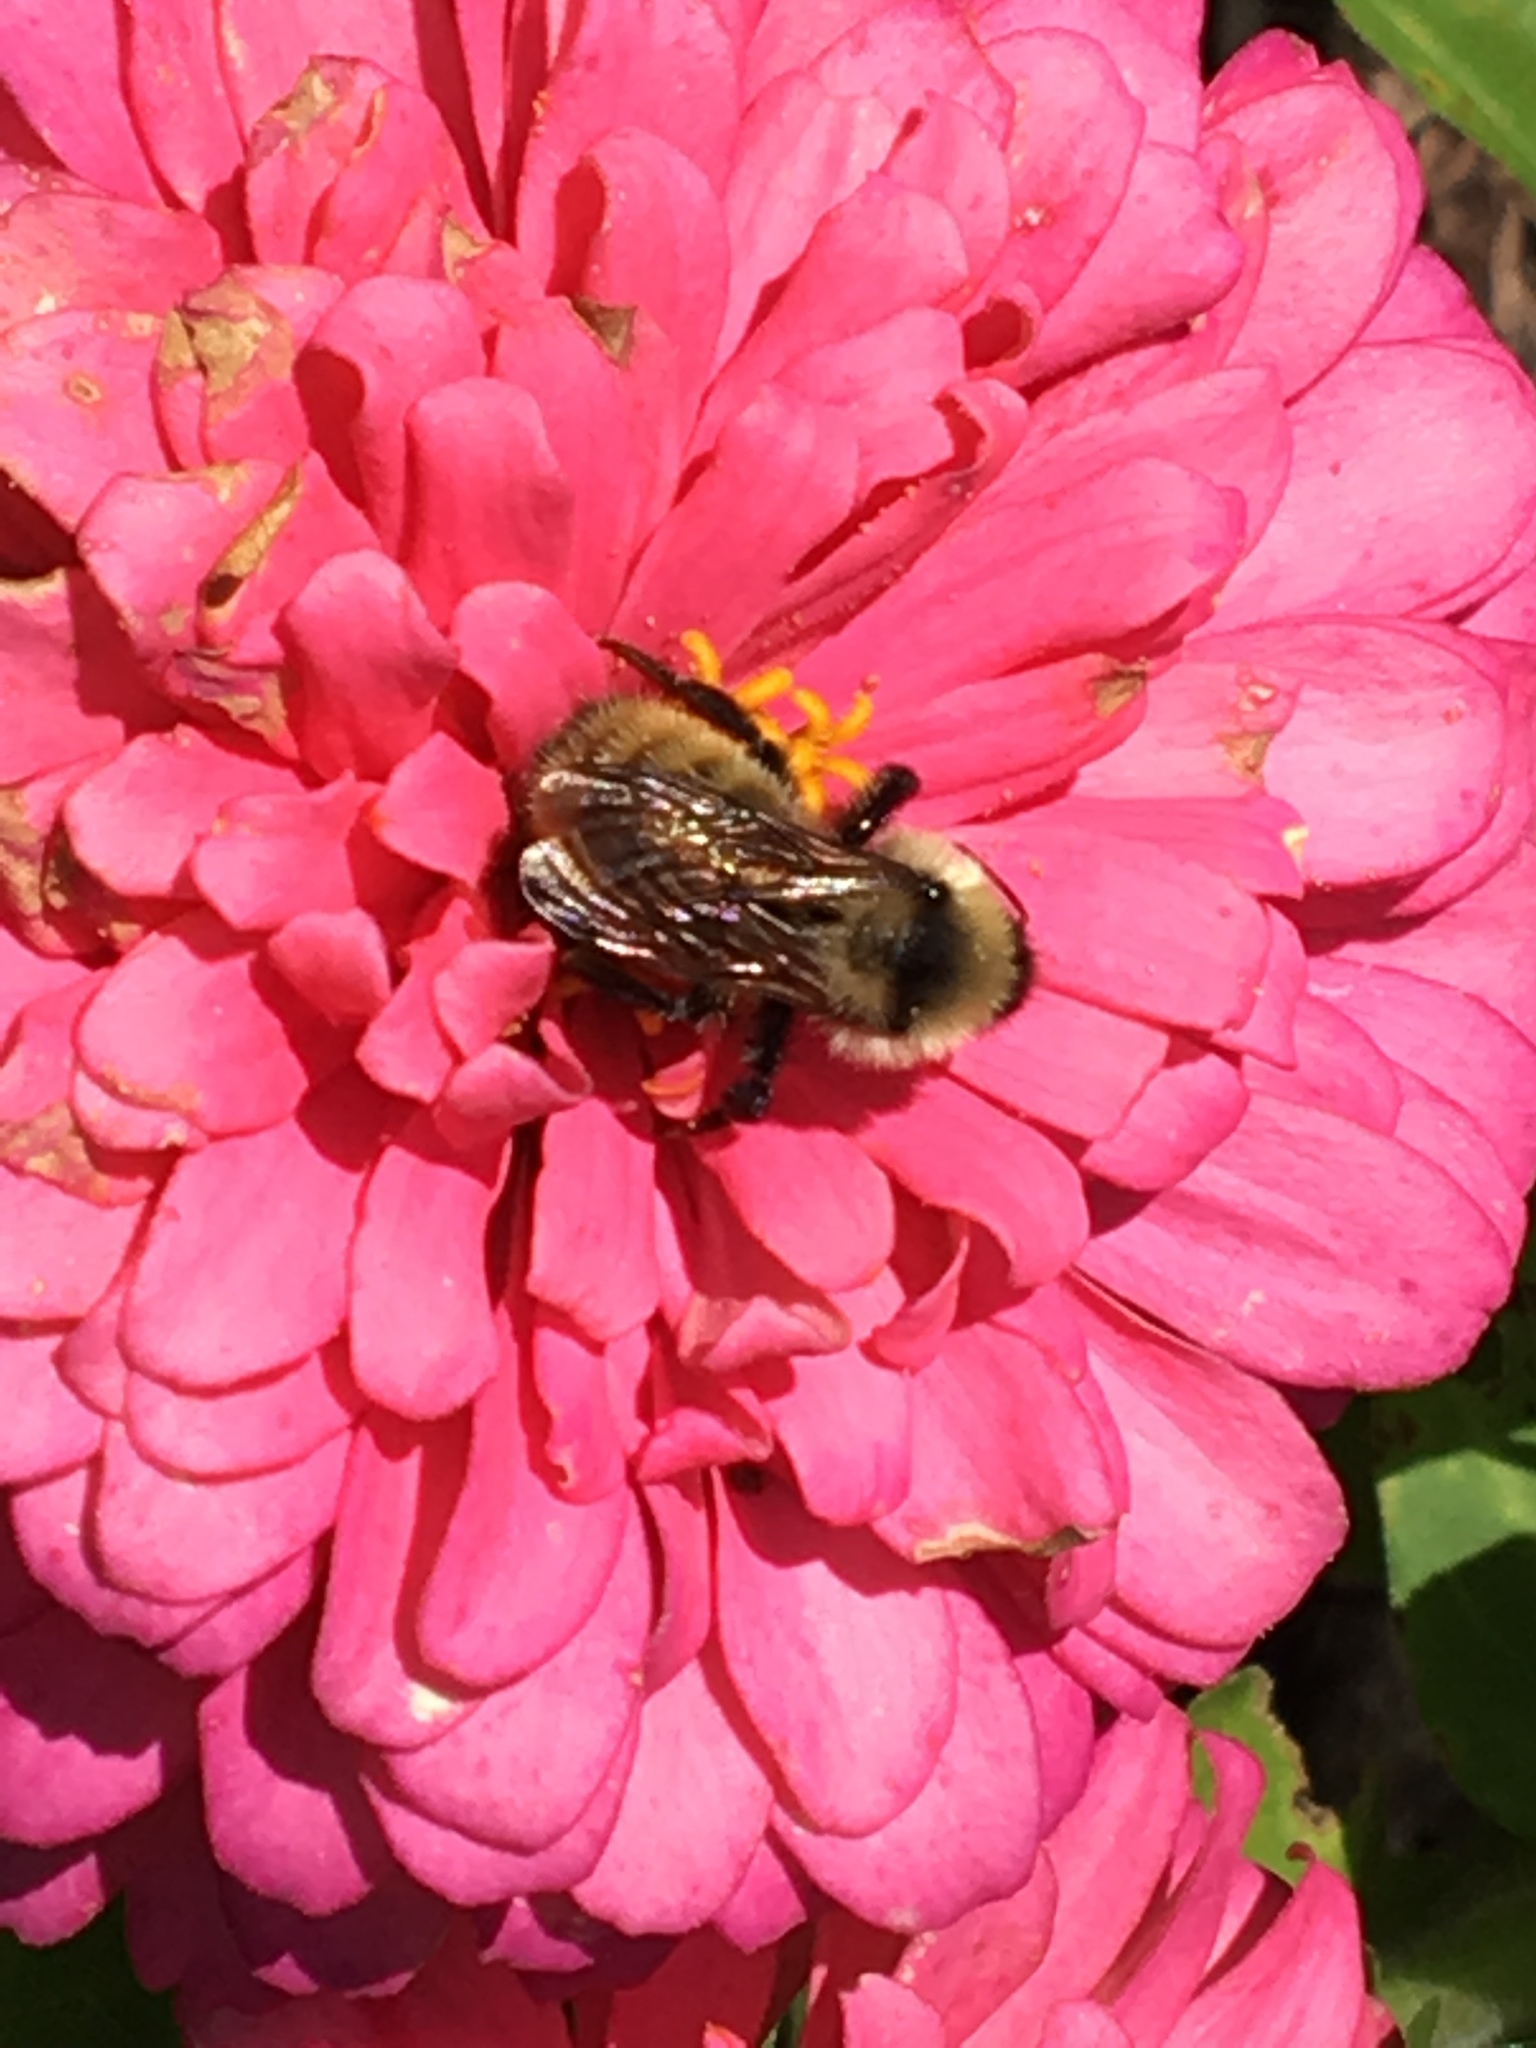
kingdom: Animalia
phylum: Arthropoda
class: Insecta
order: Hymenoptera
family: Apidae
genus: Bombus
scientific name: Bombus fervidus
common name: Yellow bumble bee
